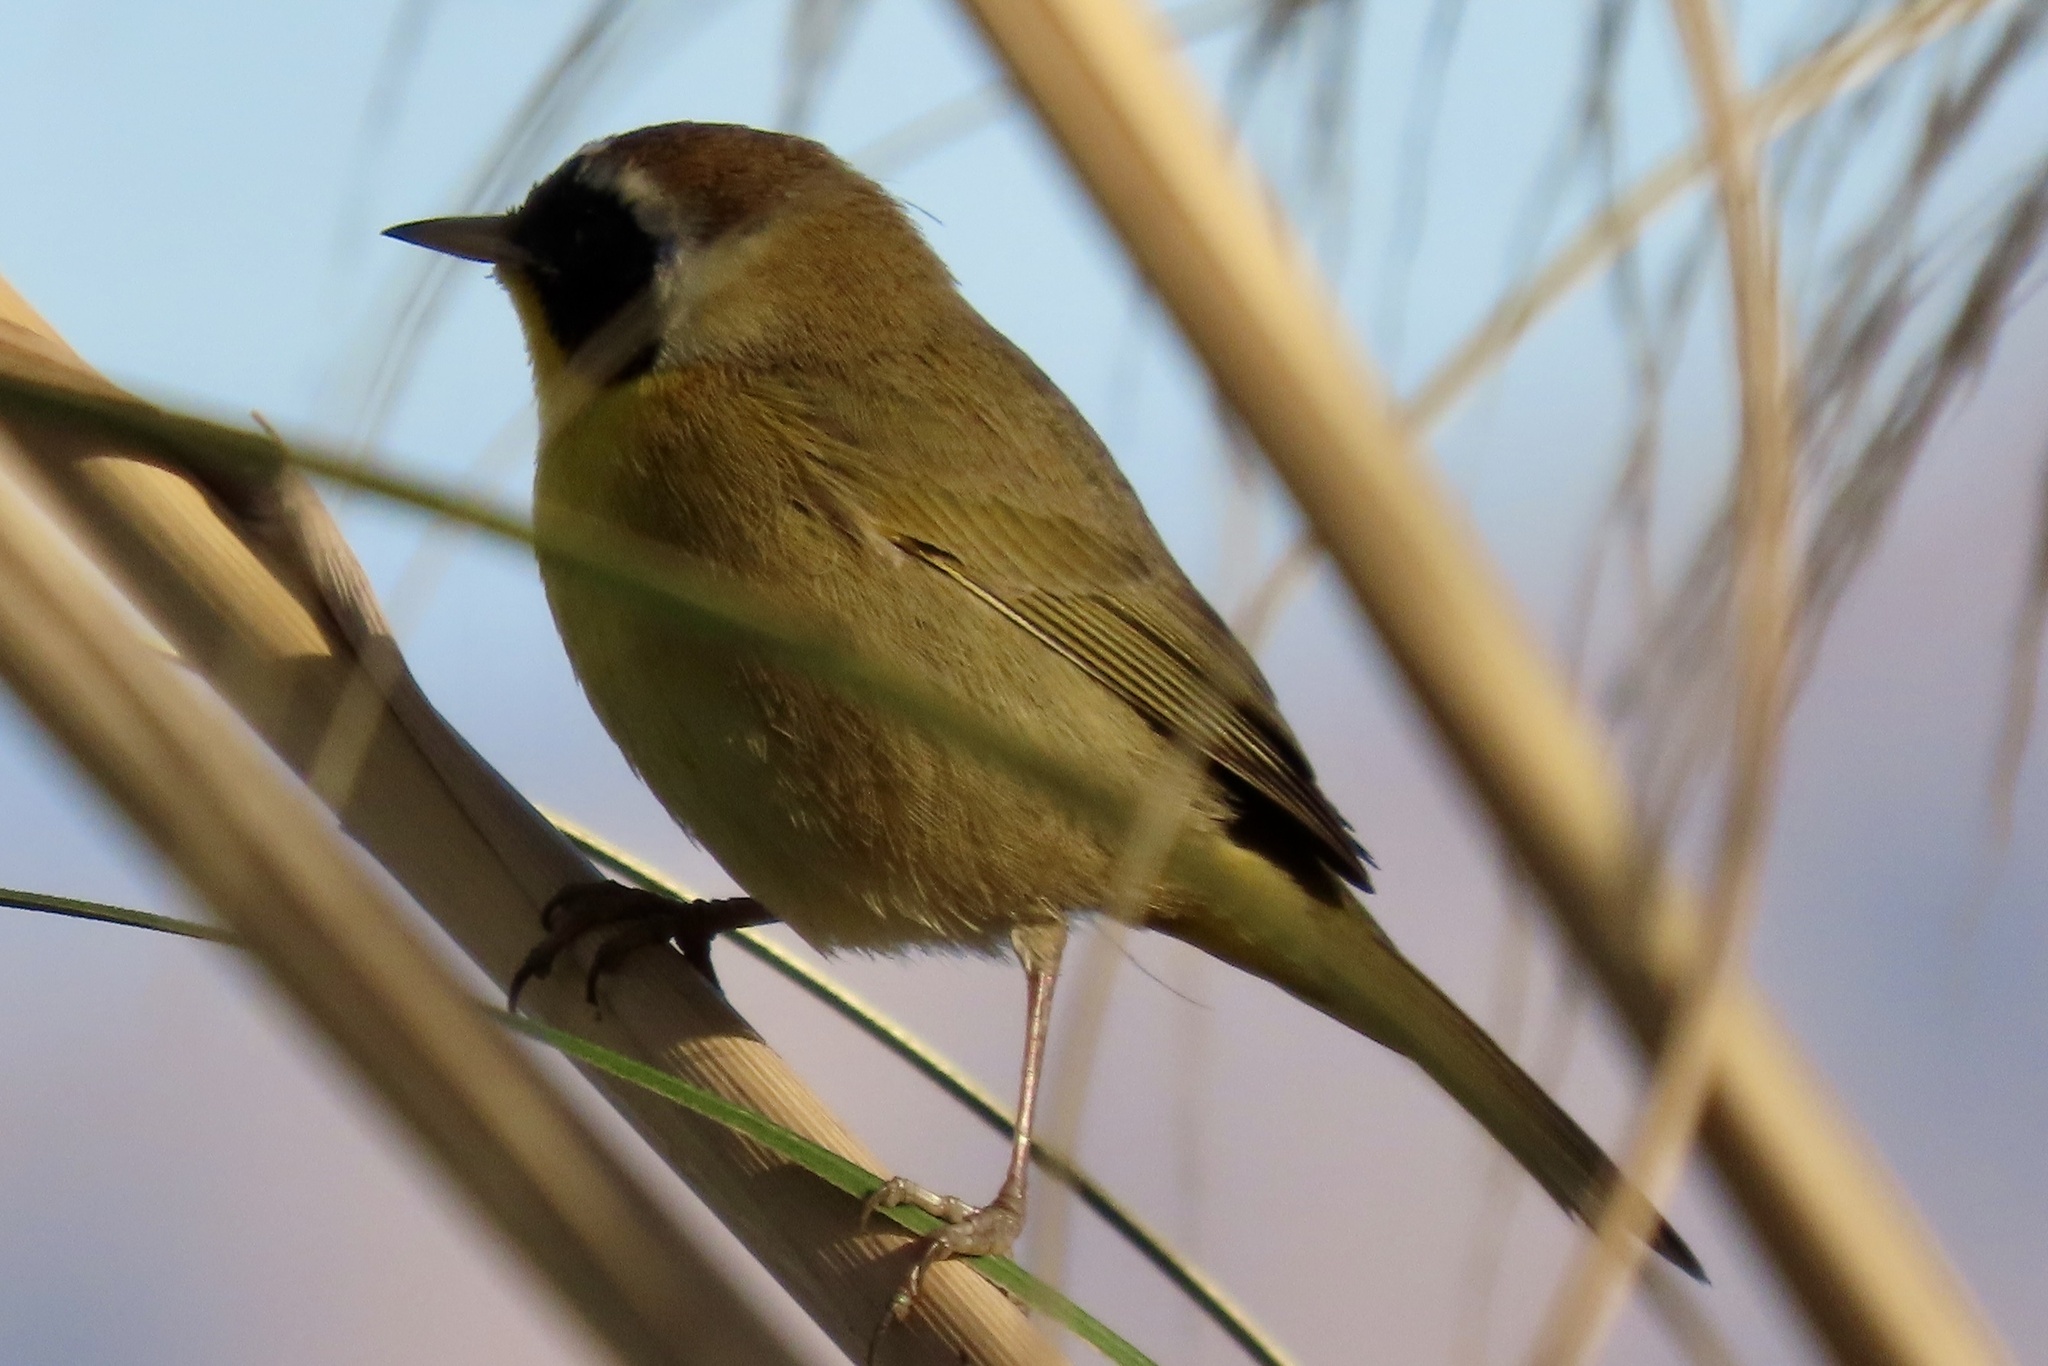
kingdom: Animalia
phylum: Chordata
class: Aves
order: Passeriformes
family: Parulidae
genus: Geothlypis
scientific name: Geothlypis trichas
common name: Common yellowthroat
